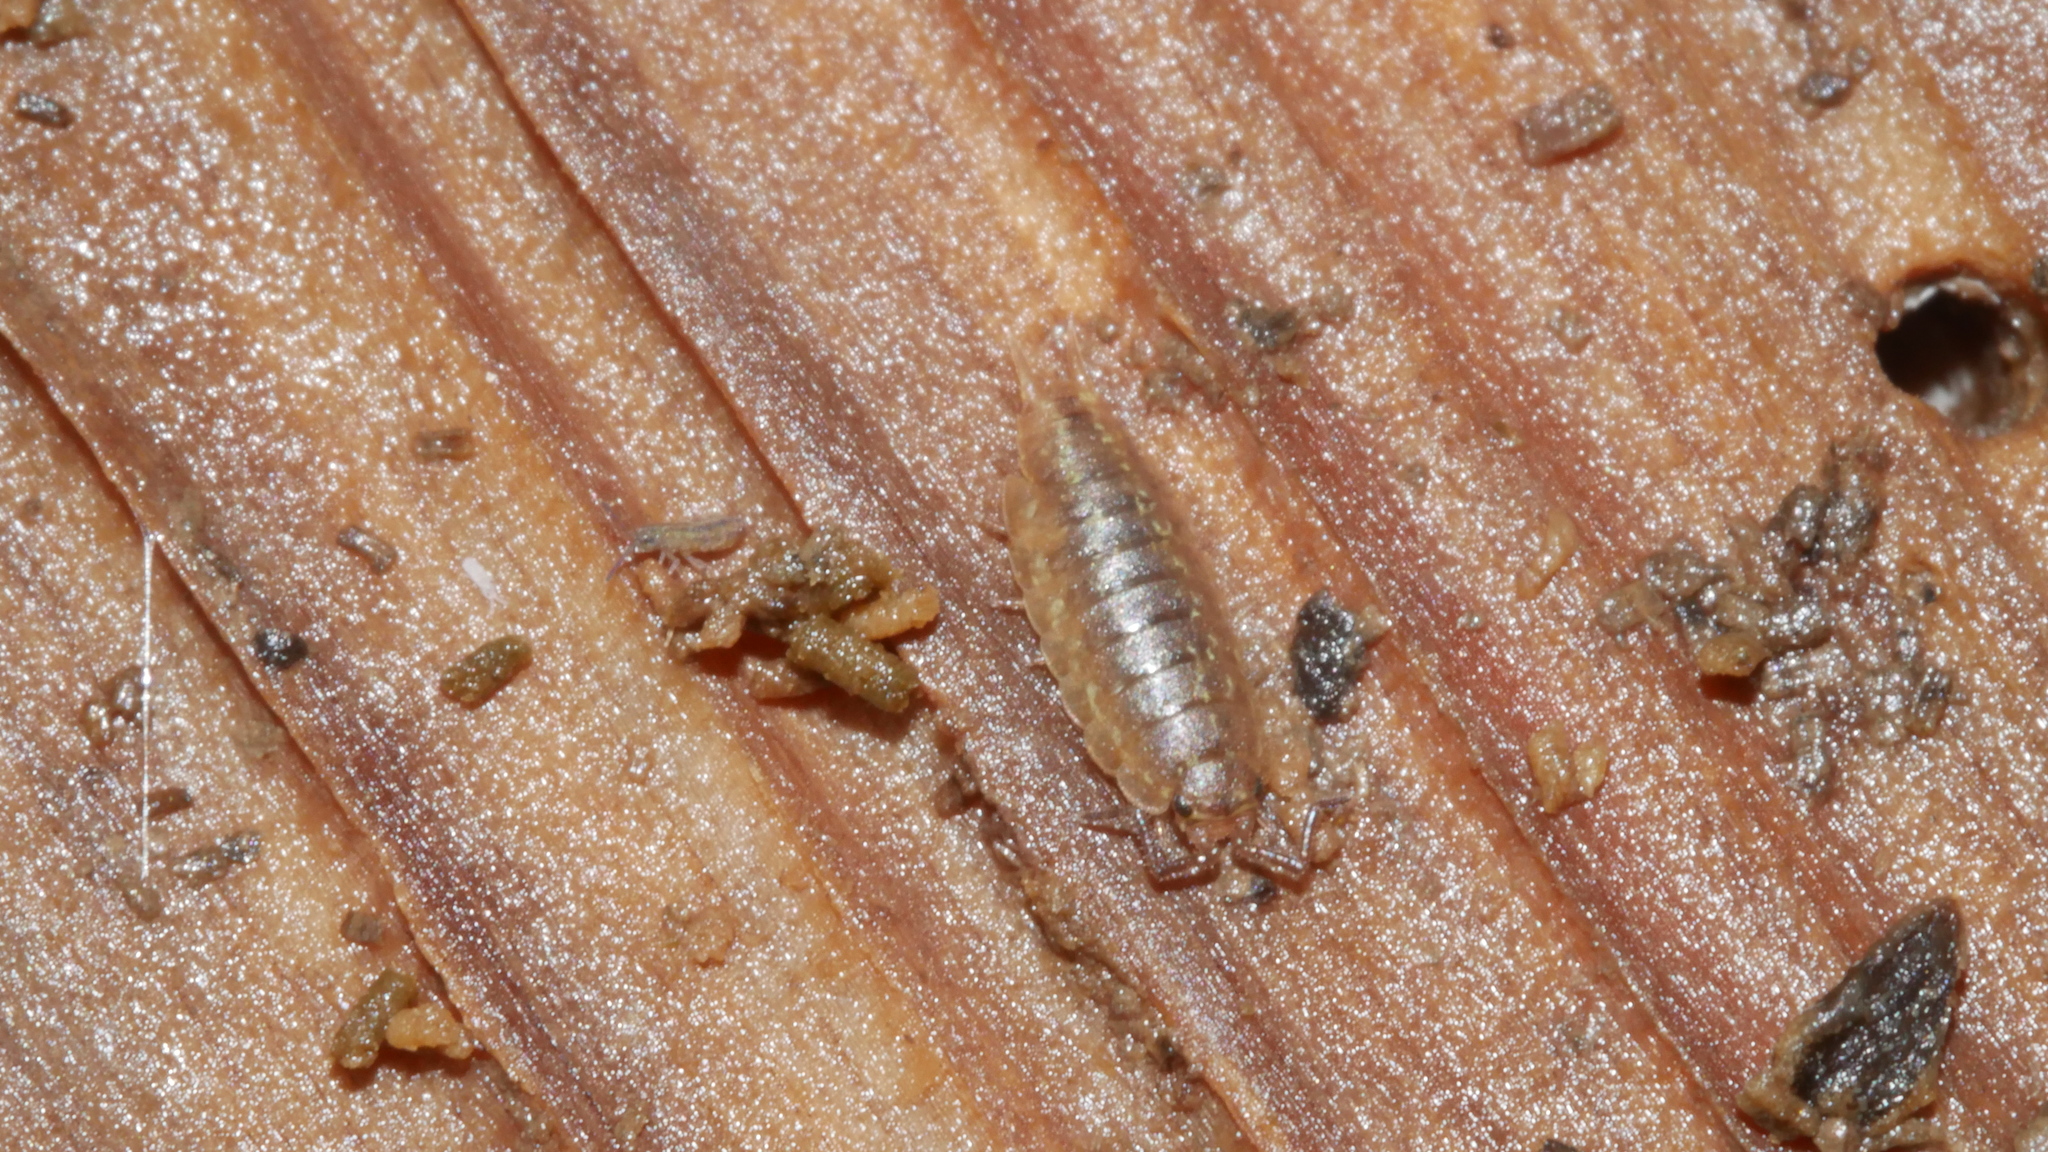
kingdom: Animalia
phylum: Arthropoda
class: Malacostraca
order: Isopoda
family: Halophilosciidae
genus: Littorophiloscia
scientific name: Littorophiloscia vittata
